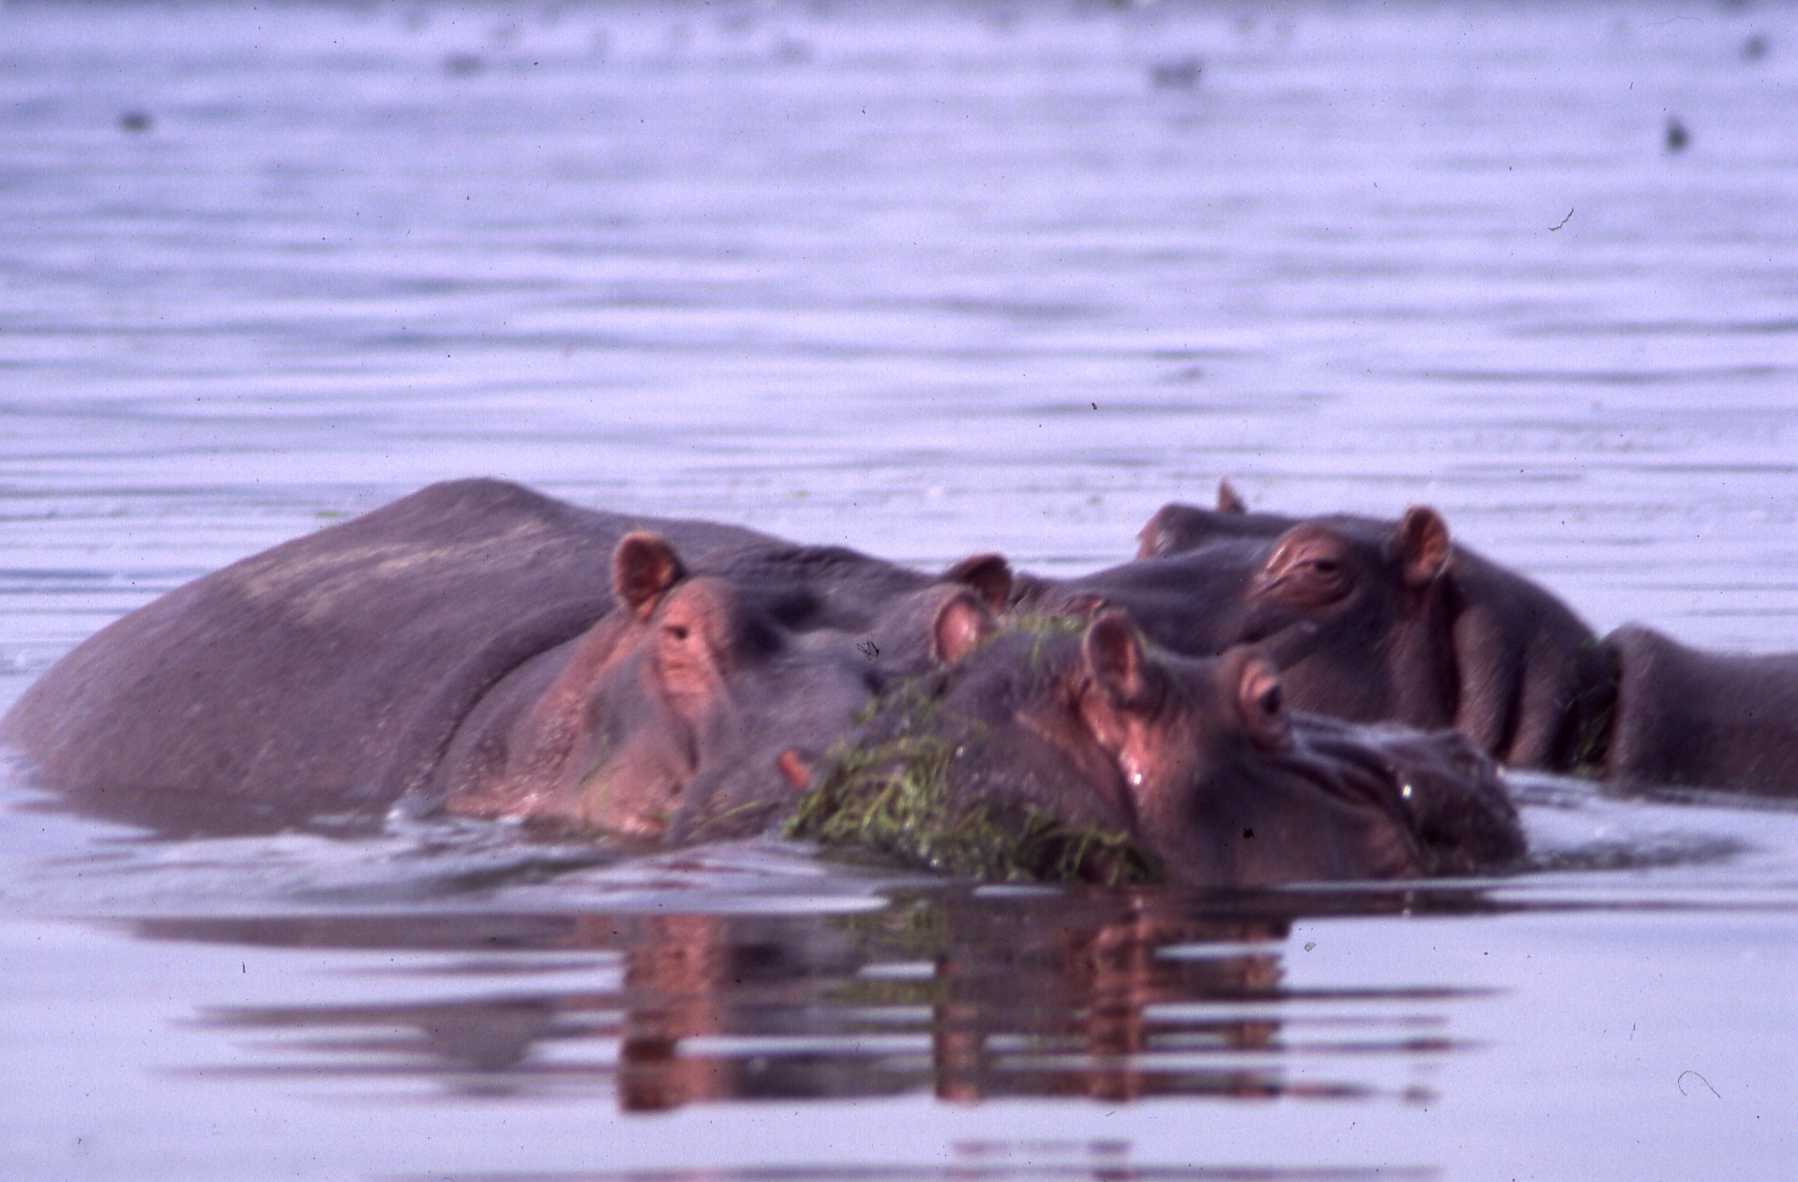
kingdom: Animalia
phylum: Chordata
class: Mammalia
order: Artiodactyla
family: Hippopotamidae
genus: Hippopotamus
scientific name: Hippopotamus amphibius
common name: Common hippopotamus
